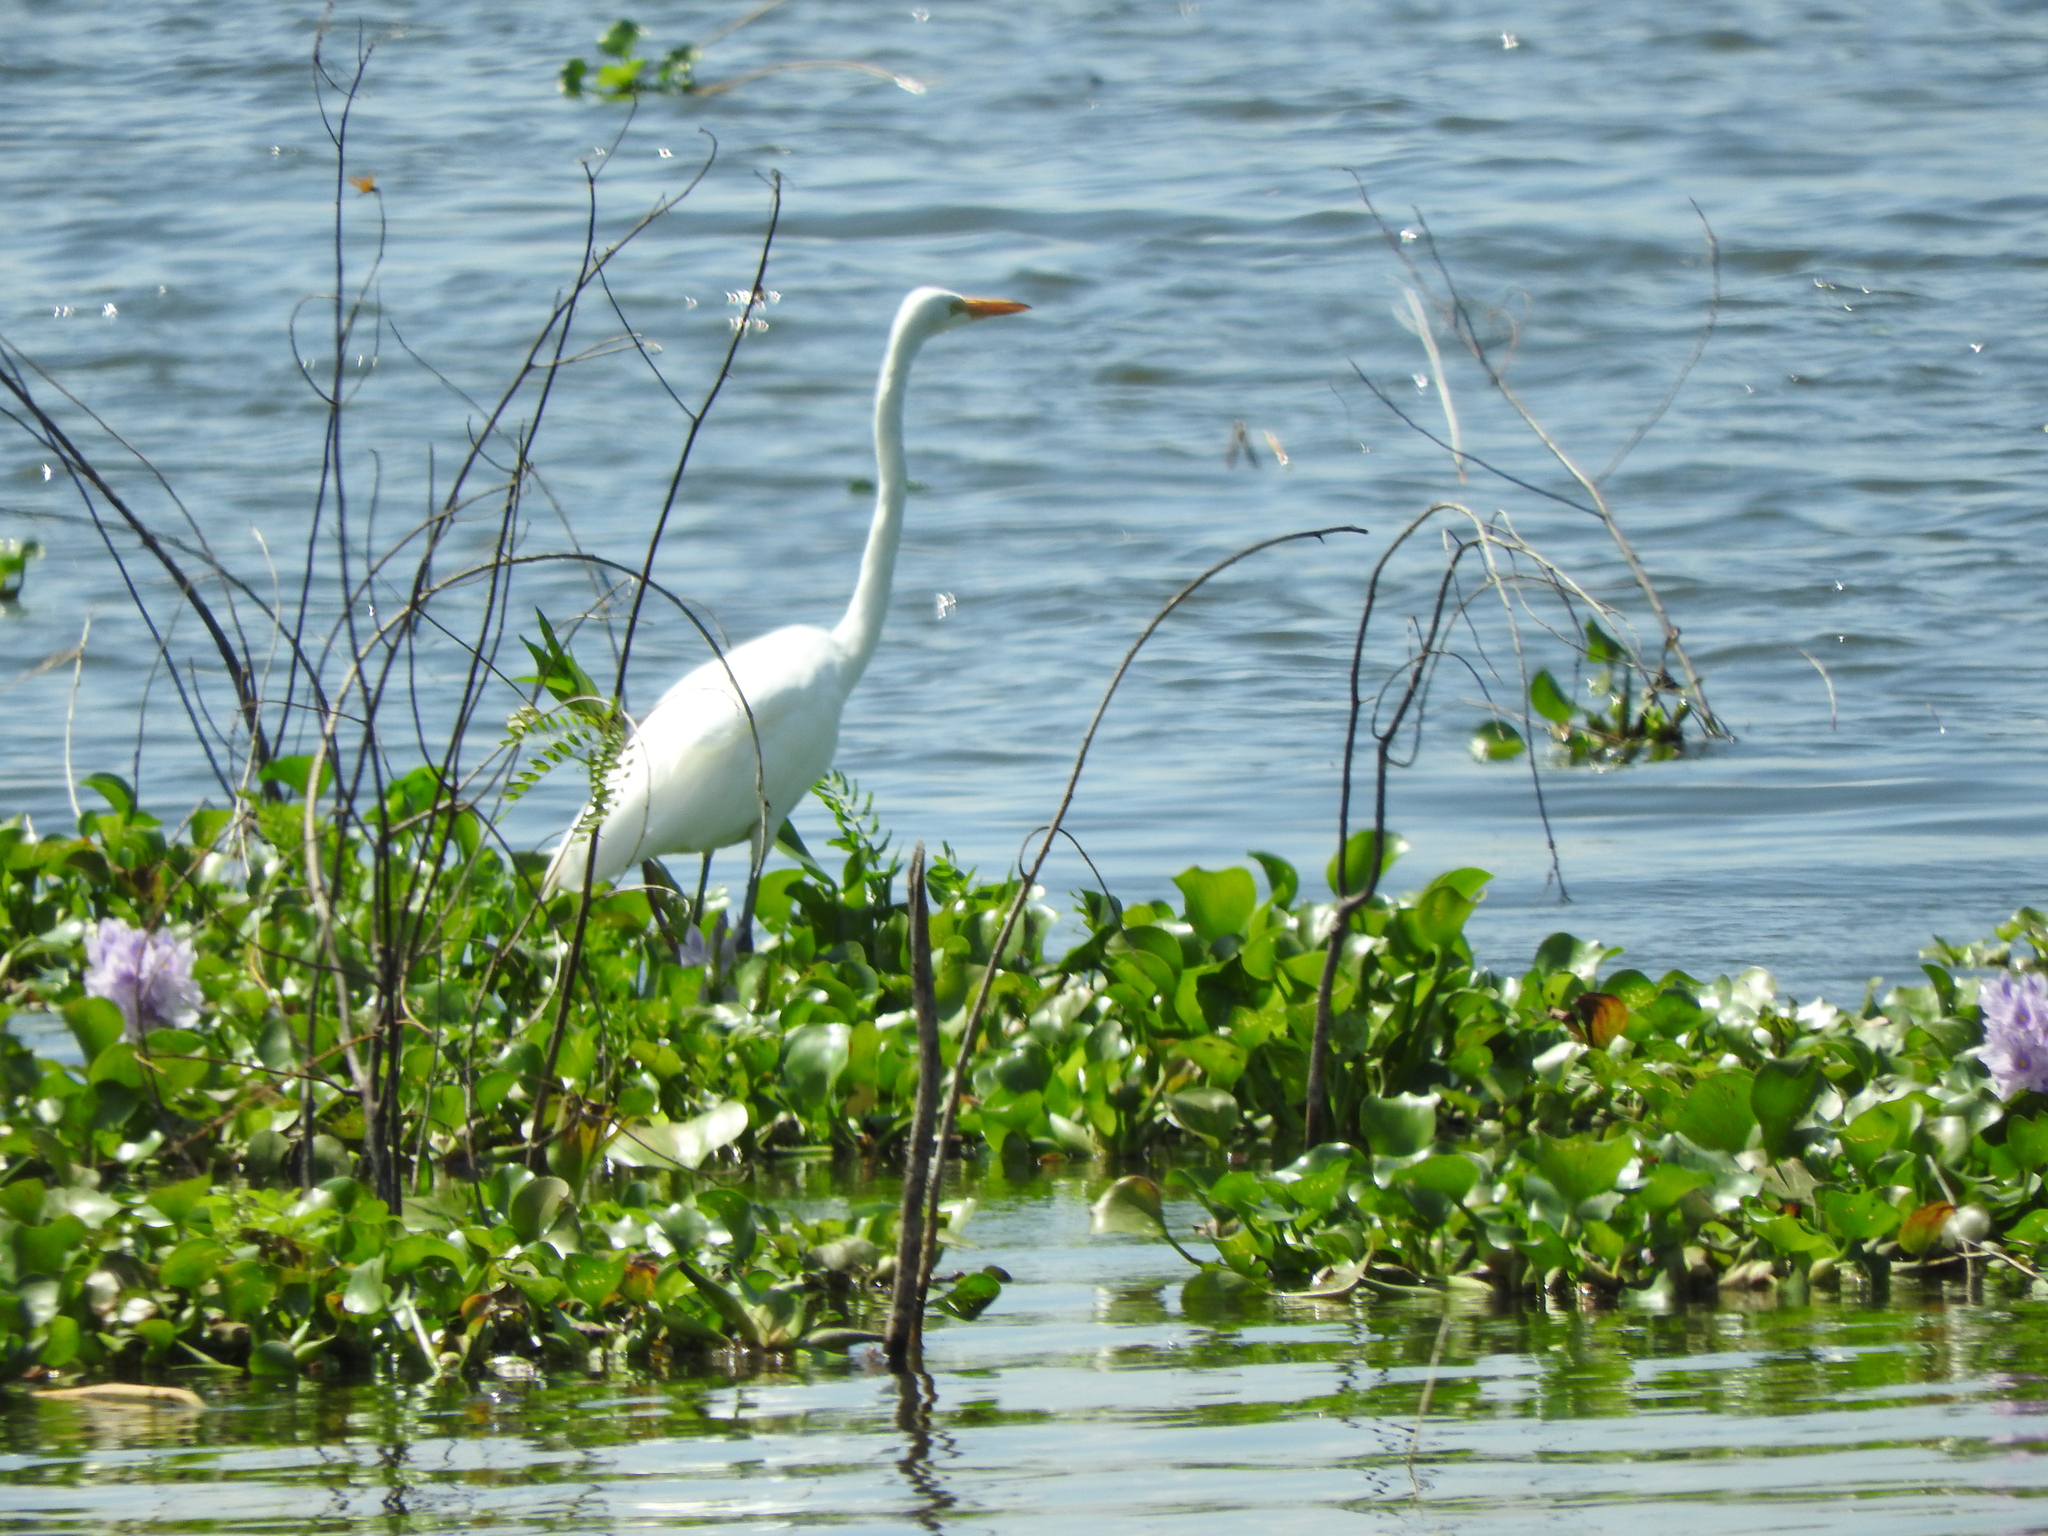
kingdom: Animalia
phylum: Chordata
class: Aves
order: Pelecaniformes
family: Ardeidae
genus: Ardea
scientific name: Ardea alba
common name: Great egret
